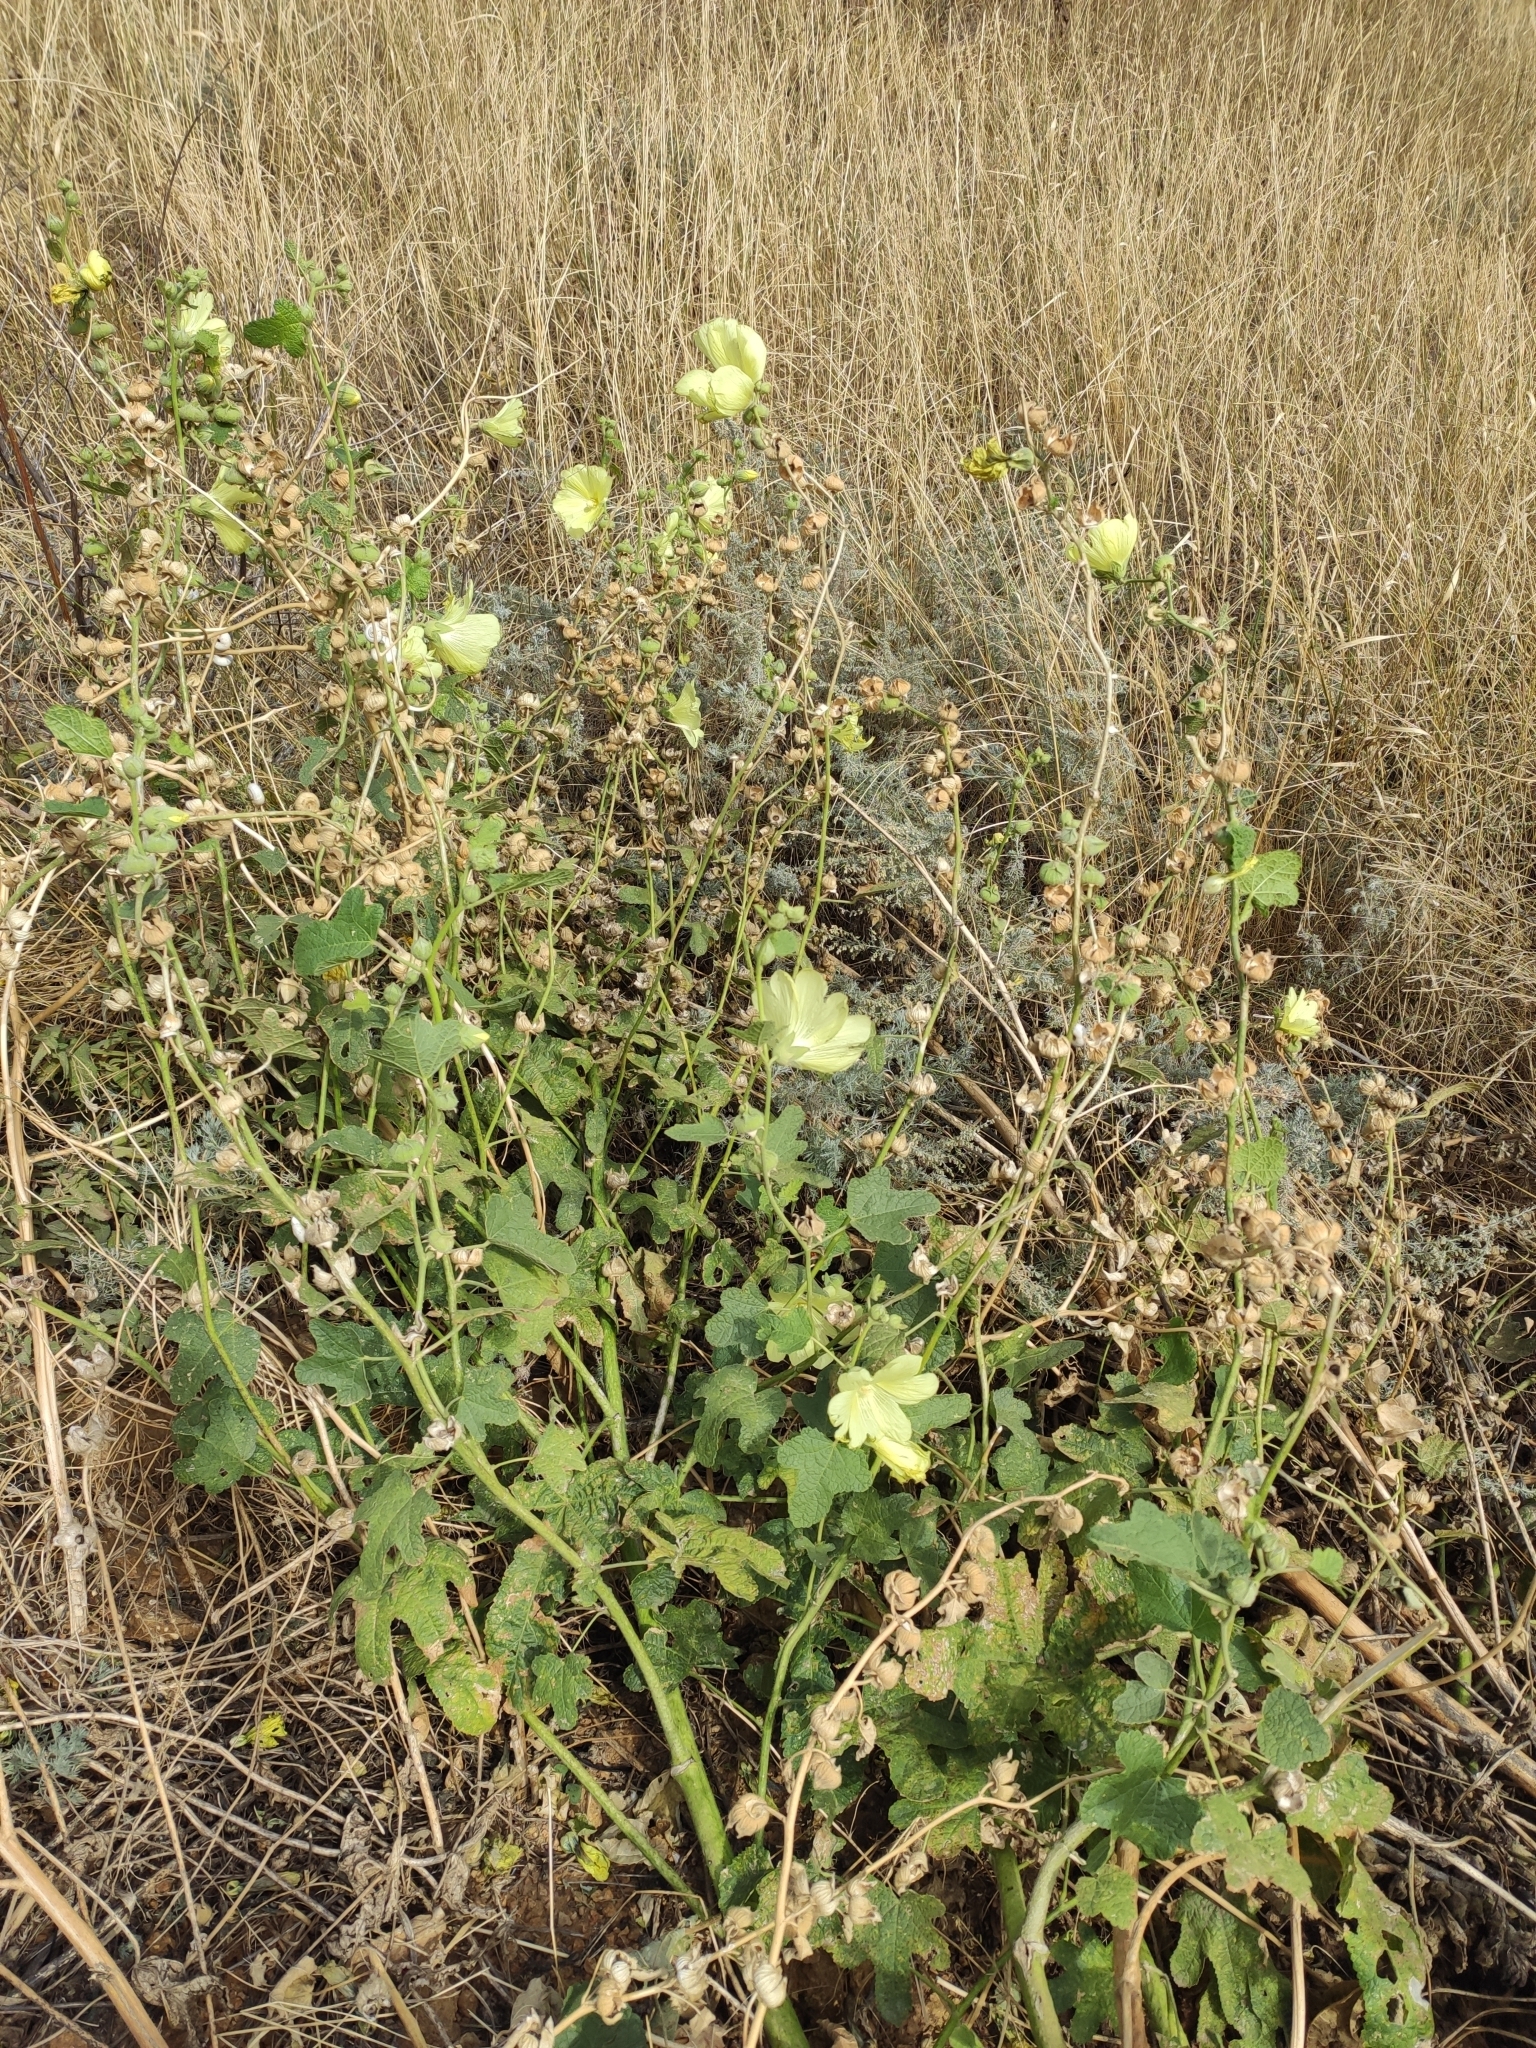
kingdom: Plantae
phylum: Tracheophyta
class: Magnoliopsida
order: Malvales
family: Malvaceae
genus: Alcea
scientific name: Alcea rugosa
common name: Russian hollyhock
